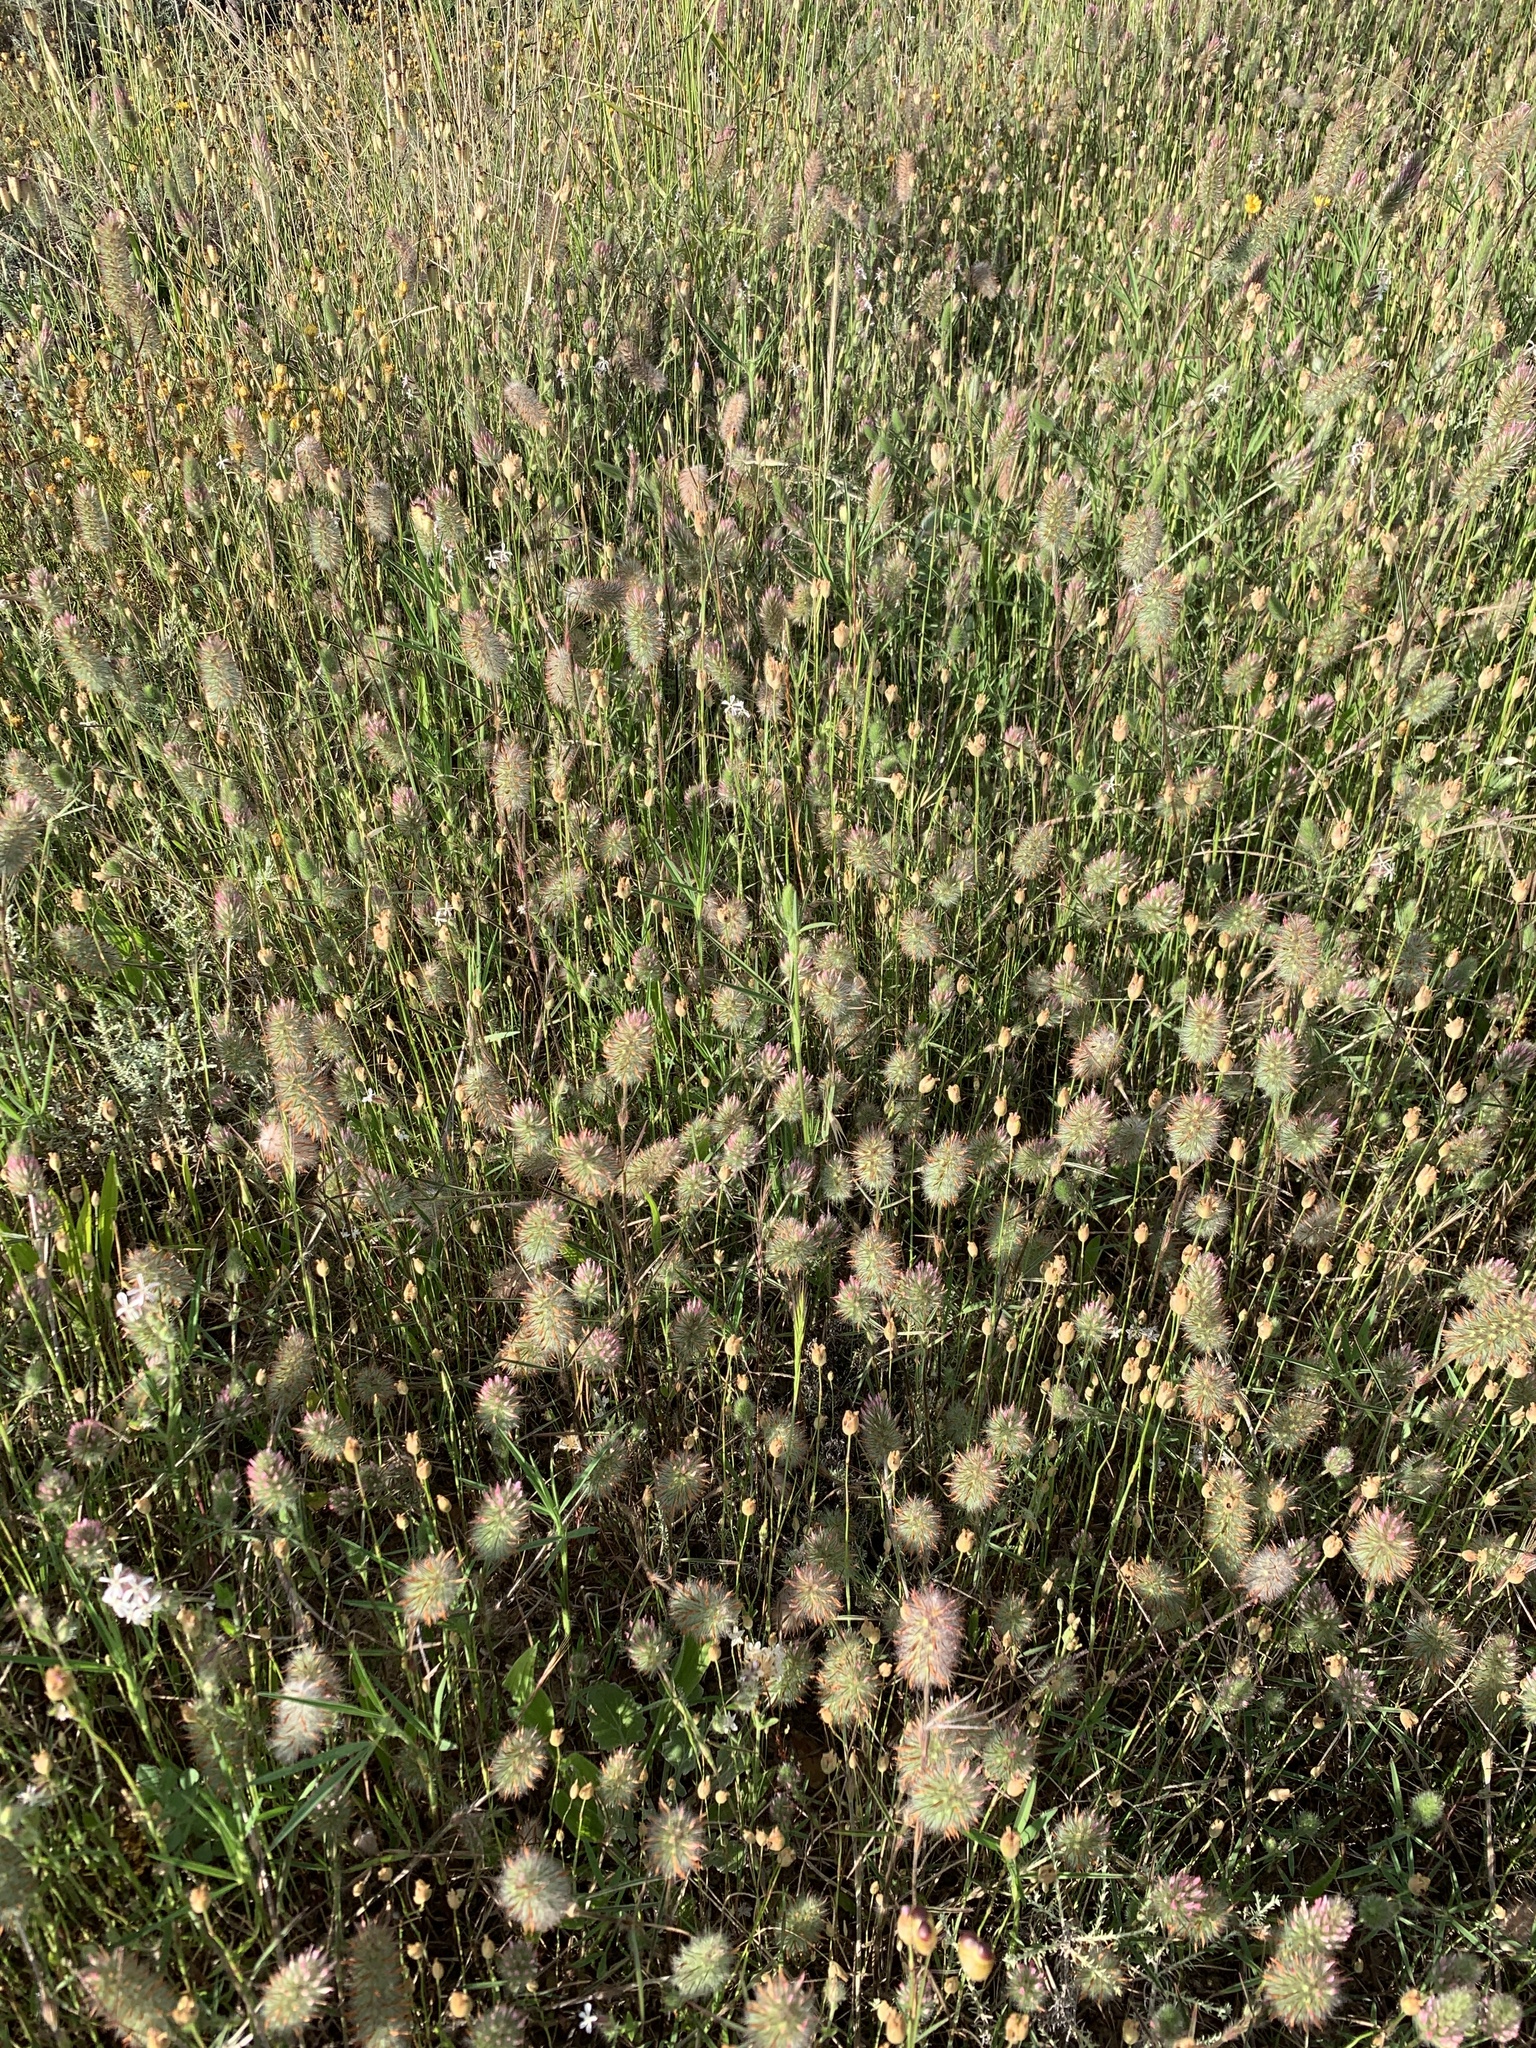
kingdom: Plantae
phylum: Tracheophyta
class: Magnoliopsida
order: Fabales
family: Fabaceae
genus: Trifolium
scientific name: Trifolium angustifolium
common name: Narrow clover
